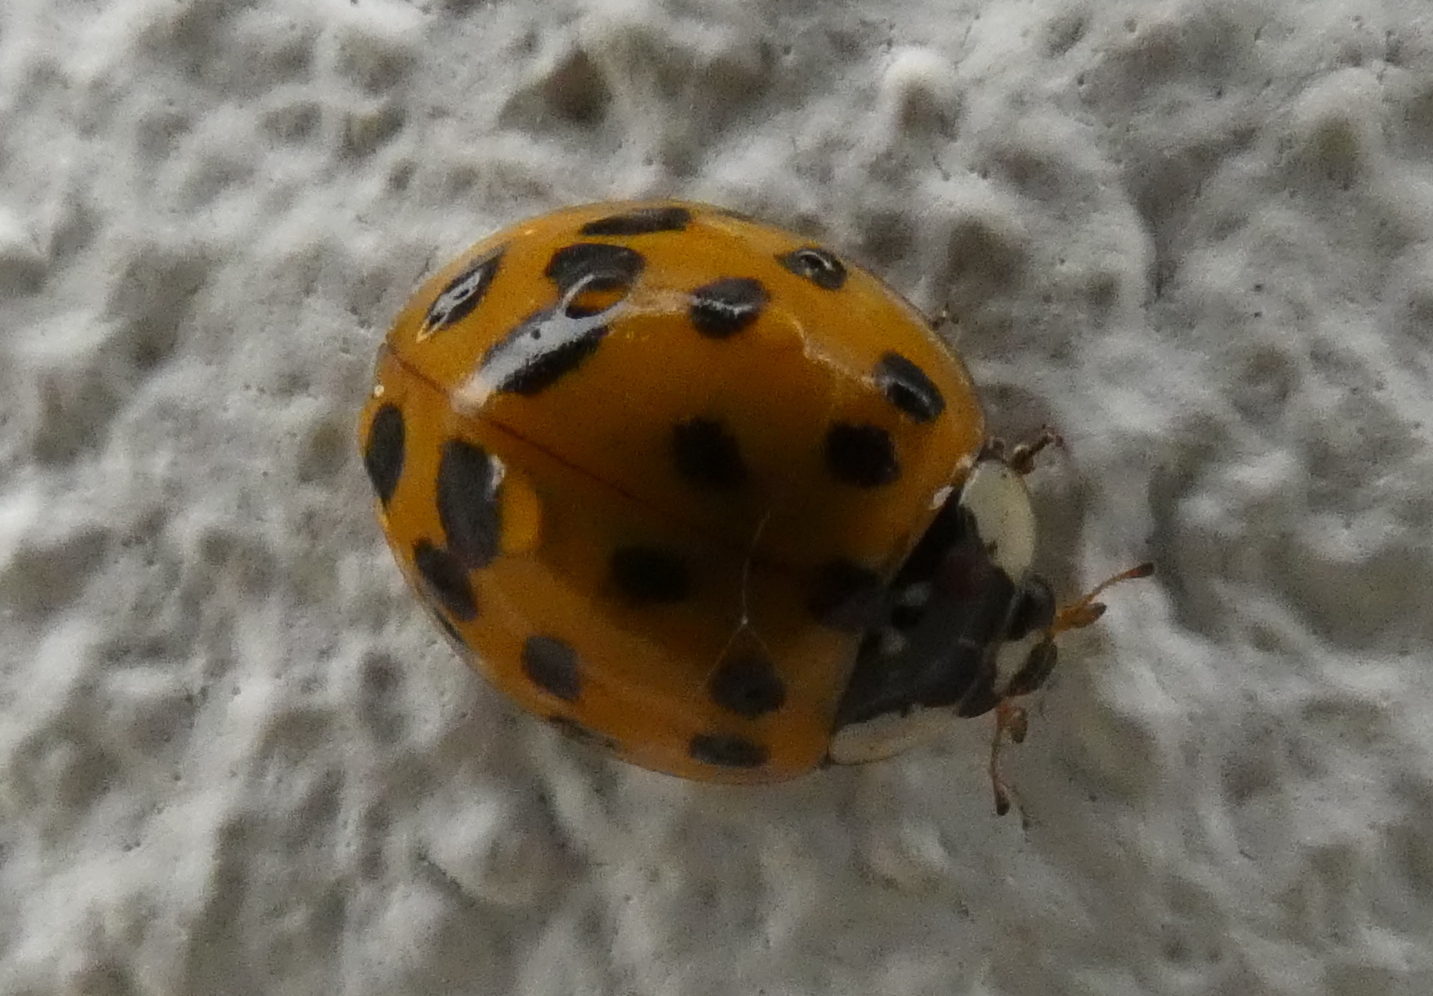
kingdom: Animalia
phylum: Arthropoda
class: Insecta
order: Coleoptera
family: Coccinellidae
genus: Harmonia
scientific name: Harmonia axyridis
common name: Harlequin ladybird
